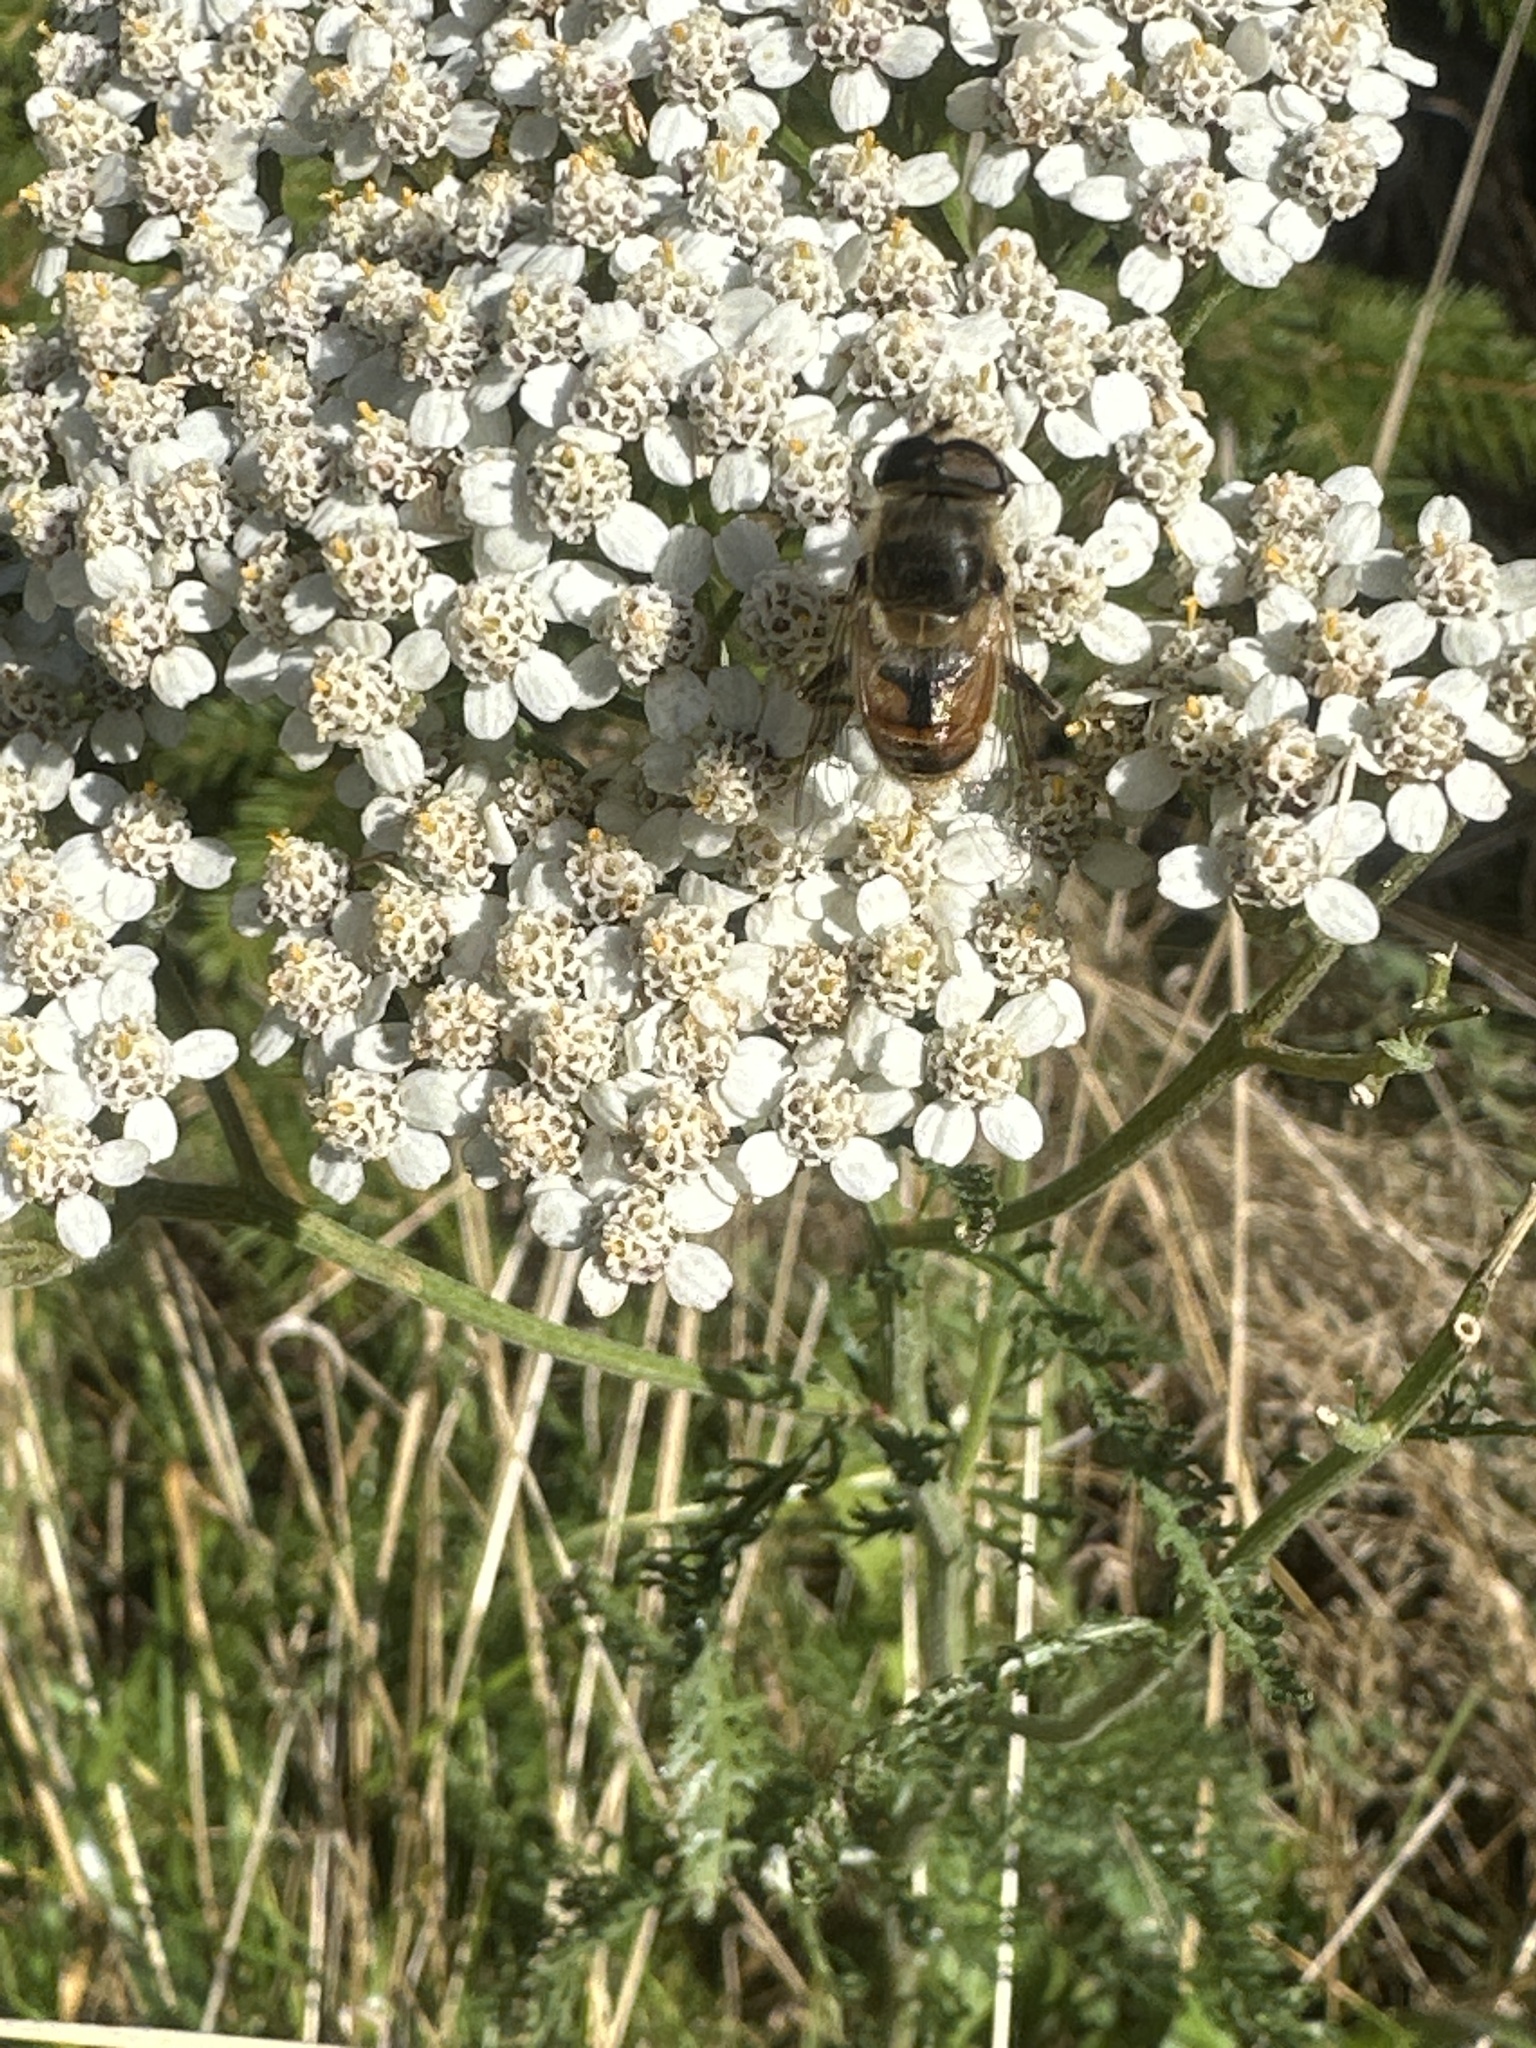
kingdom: Animalia
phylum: Arthropoda
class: Insecta
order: Diptera
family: Syrphidae
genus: Eristalis
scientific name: Eristalis tenax
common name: Drone fly
